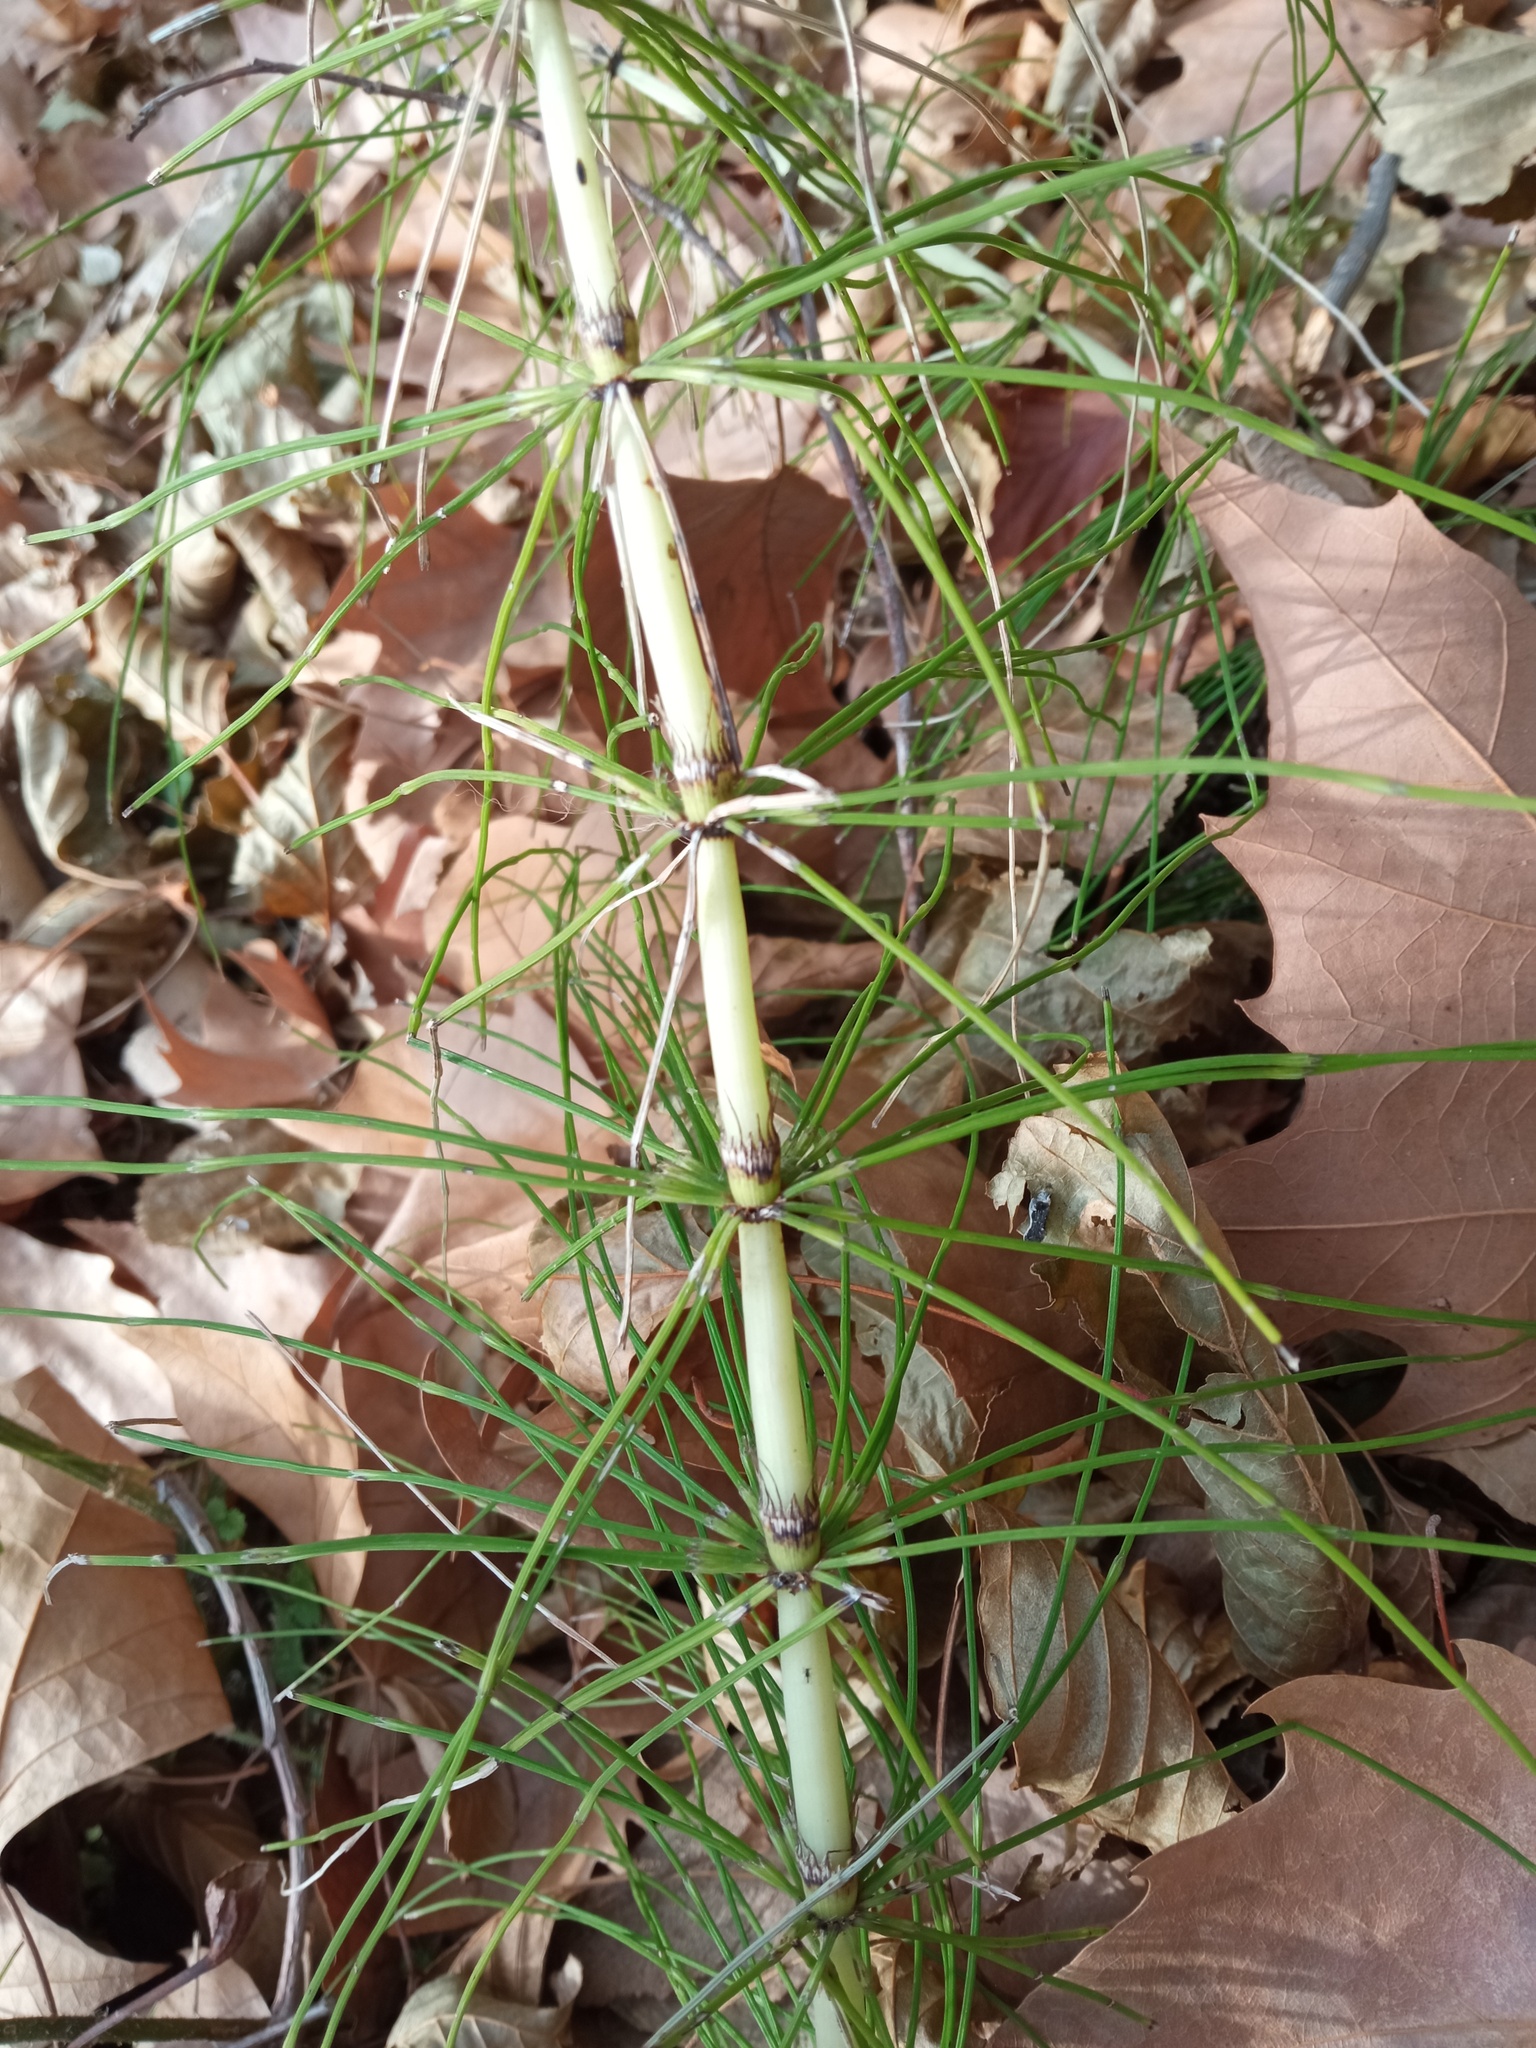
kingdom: Plantae
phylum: Tracheophyta
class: Polypodiopsida
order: Equisetales
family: Equisetaceae
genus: Equisetum
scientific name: Equisetum telmateia
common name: Great horsetail
